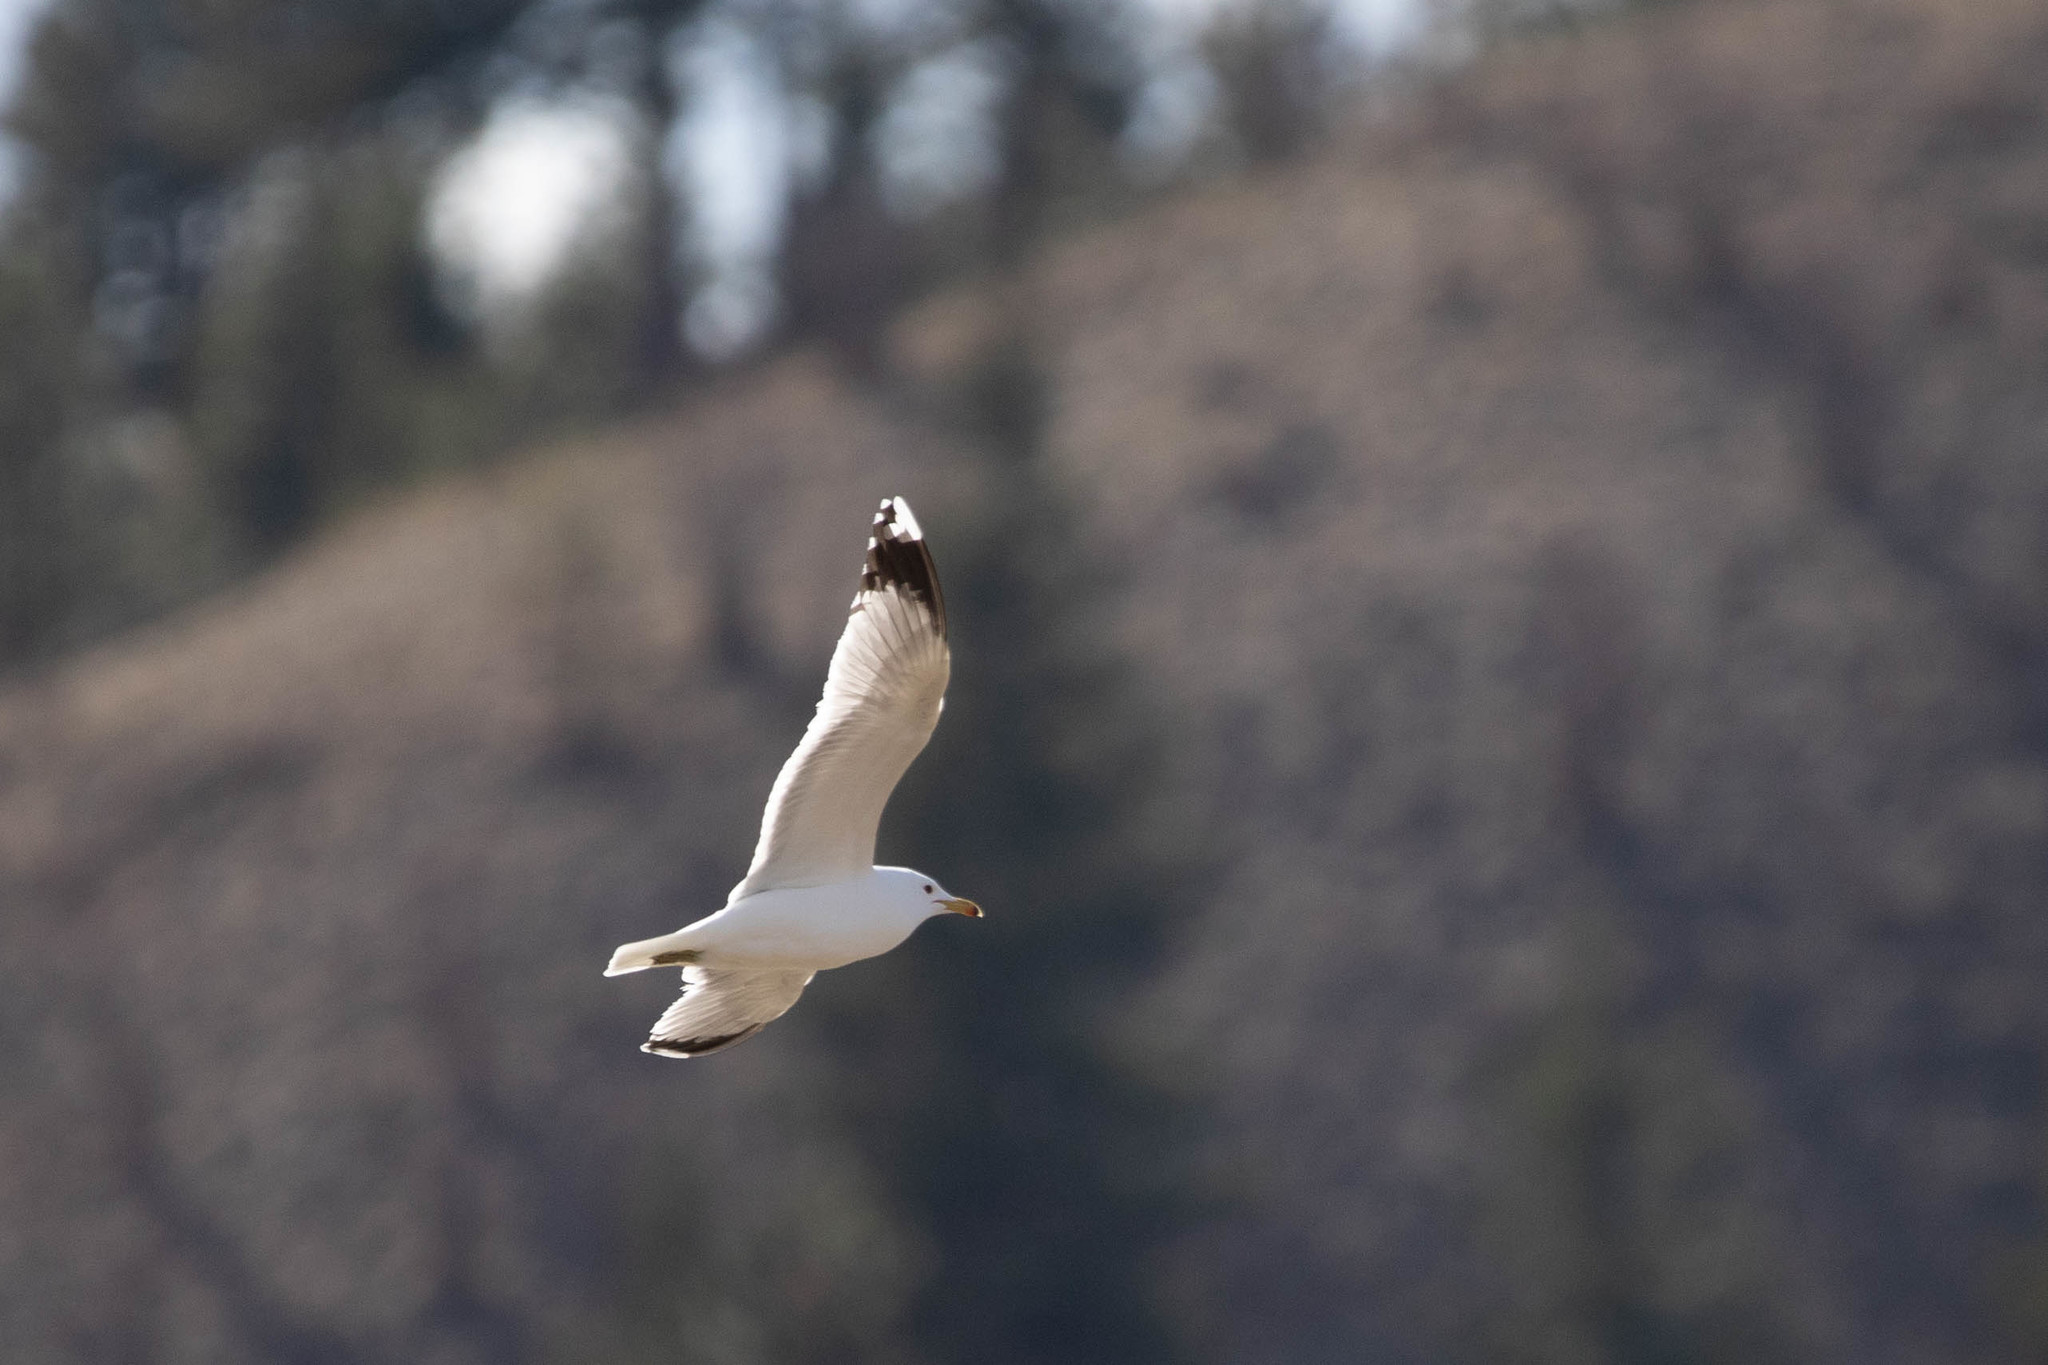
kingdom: Animalia
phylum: Chordata
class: Aves
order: Charadriiformes
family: Laridae
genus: Larus
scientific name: Larus californicus
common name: California gull
